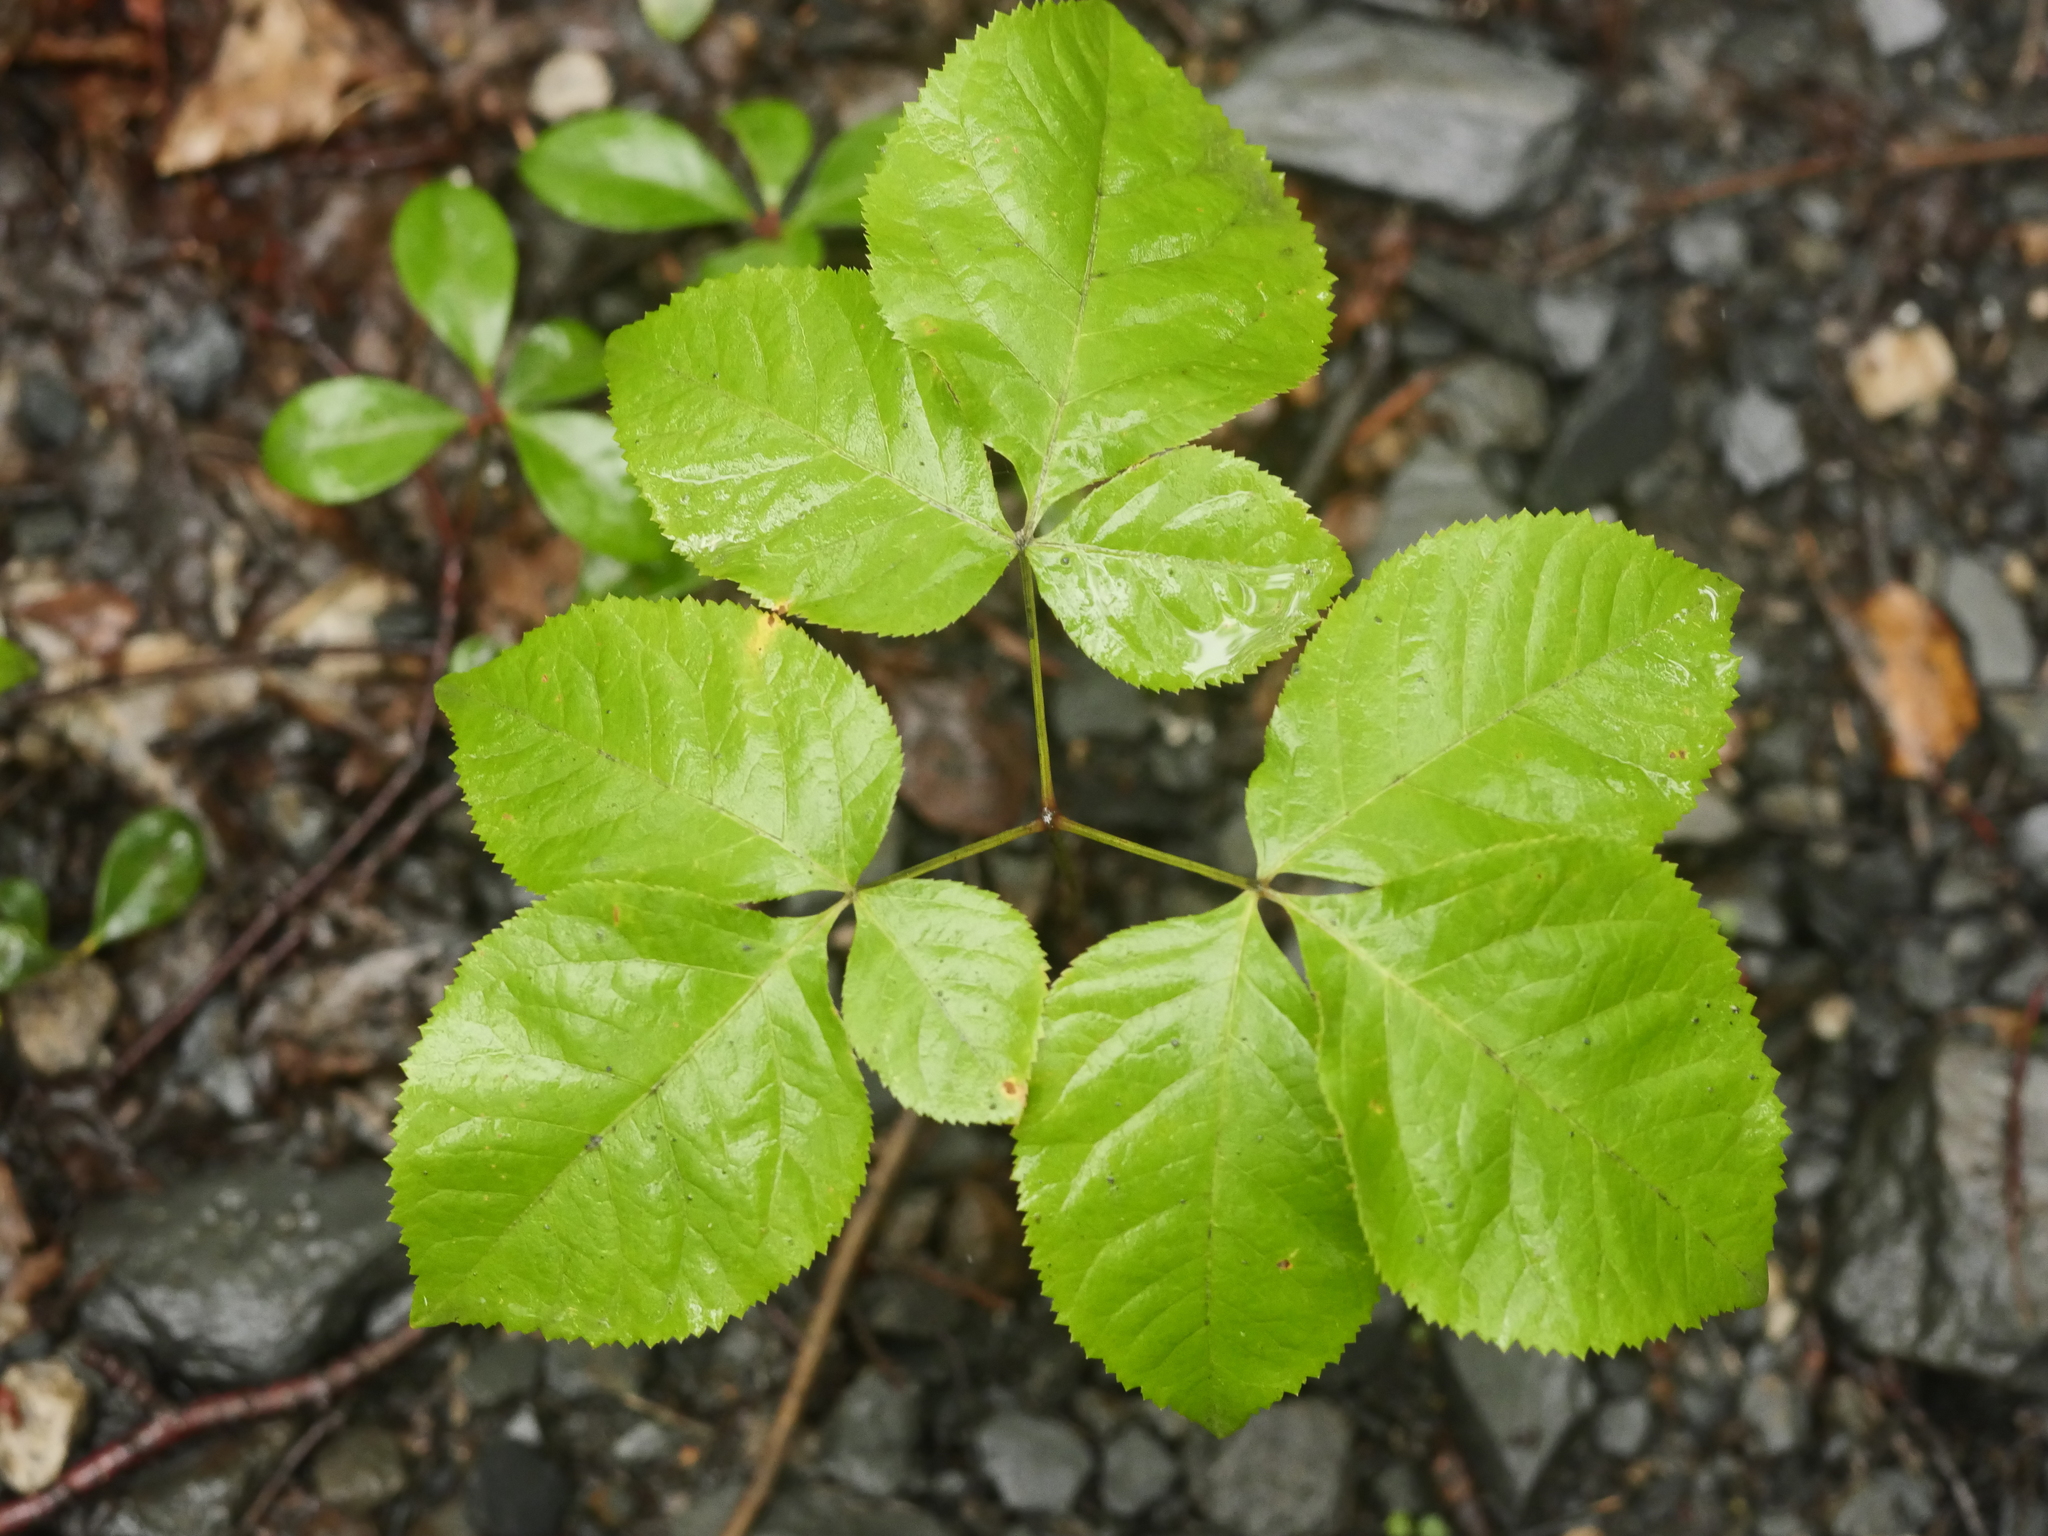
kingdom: Plantae
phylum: Tracheophyta
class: Magnoliopsida
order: Apiales
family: Araliaceae
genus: Aralia
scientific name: Aralia nudicaulis
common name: Wild sarsaparilla
